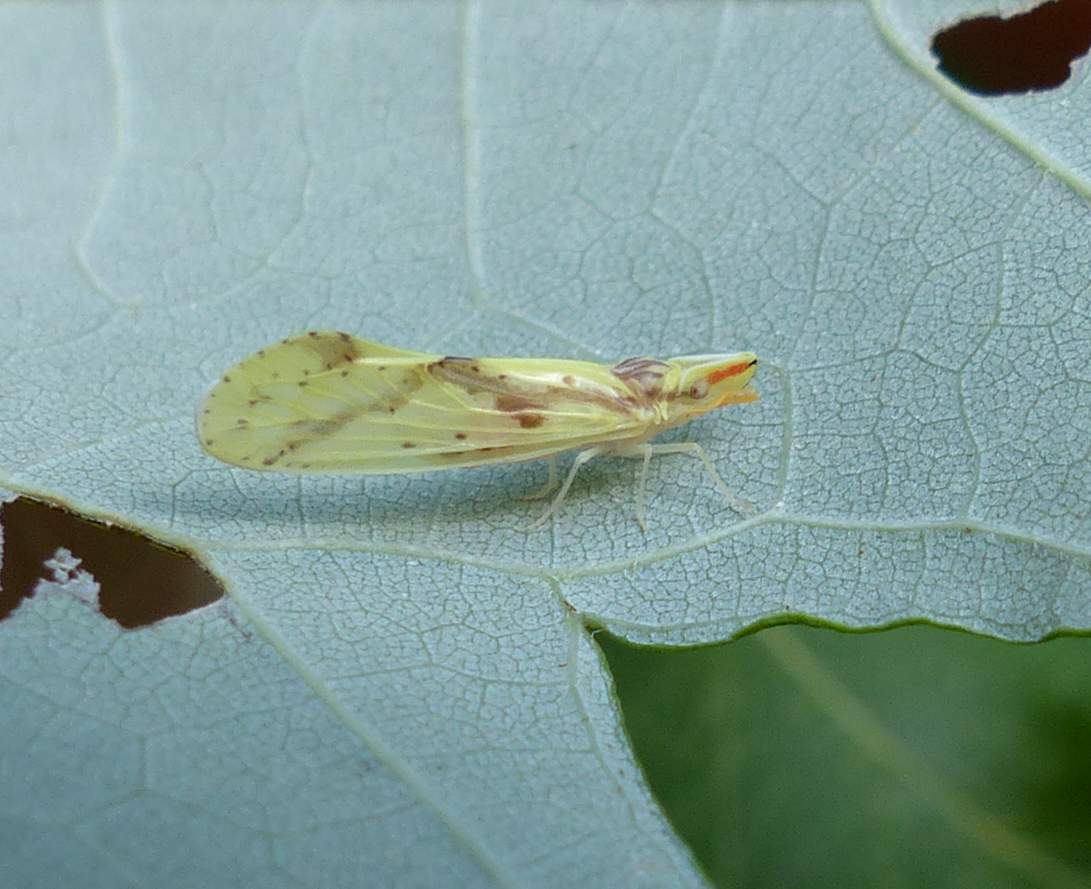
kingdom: Animalia
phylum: Arthropoda
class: Insecta
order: Hemiptera
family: Derbidae
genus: Otiocerus
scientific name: Otiocerus wolfii
